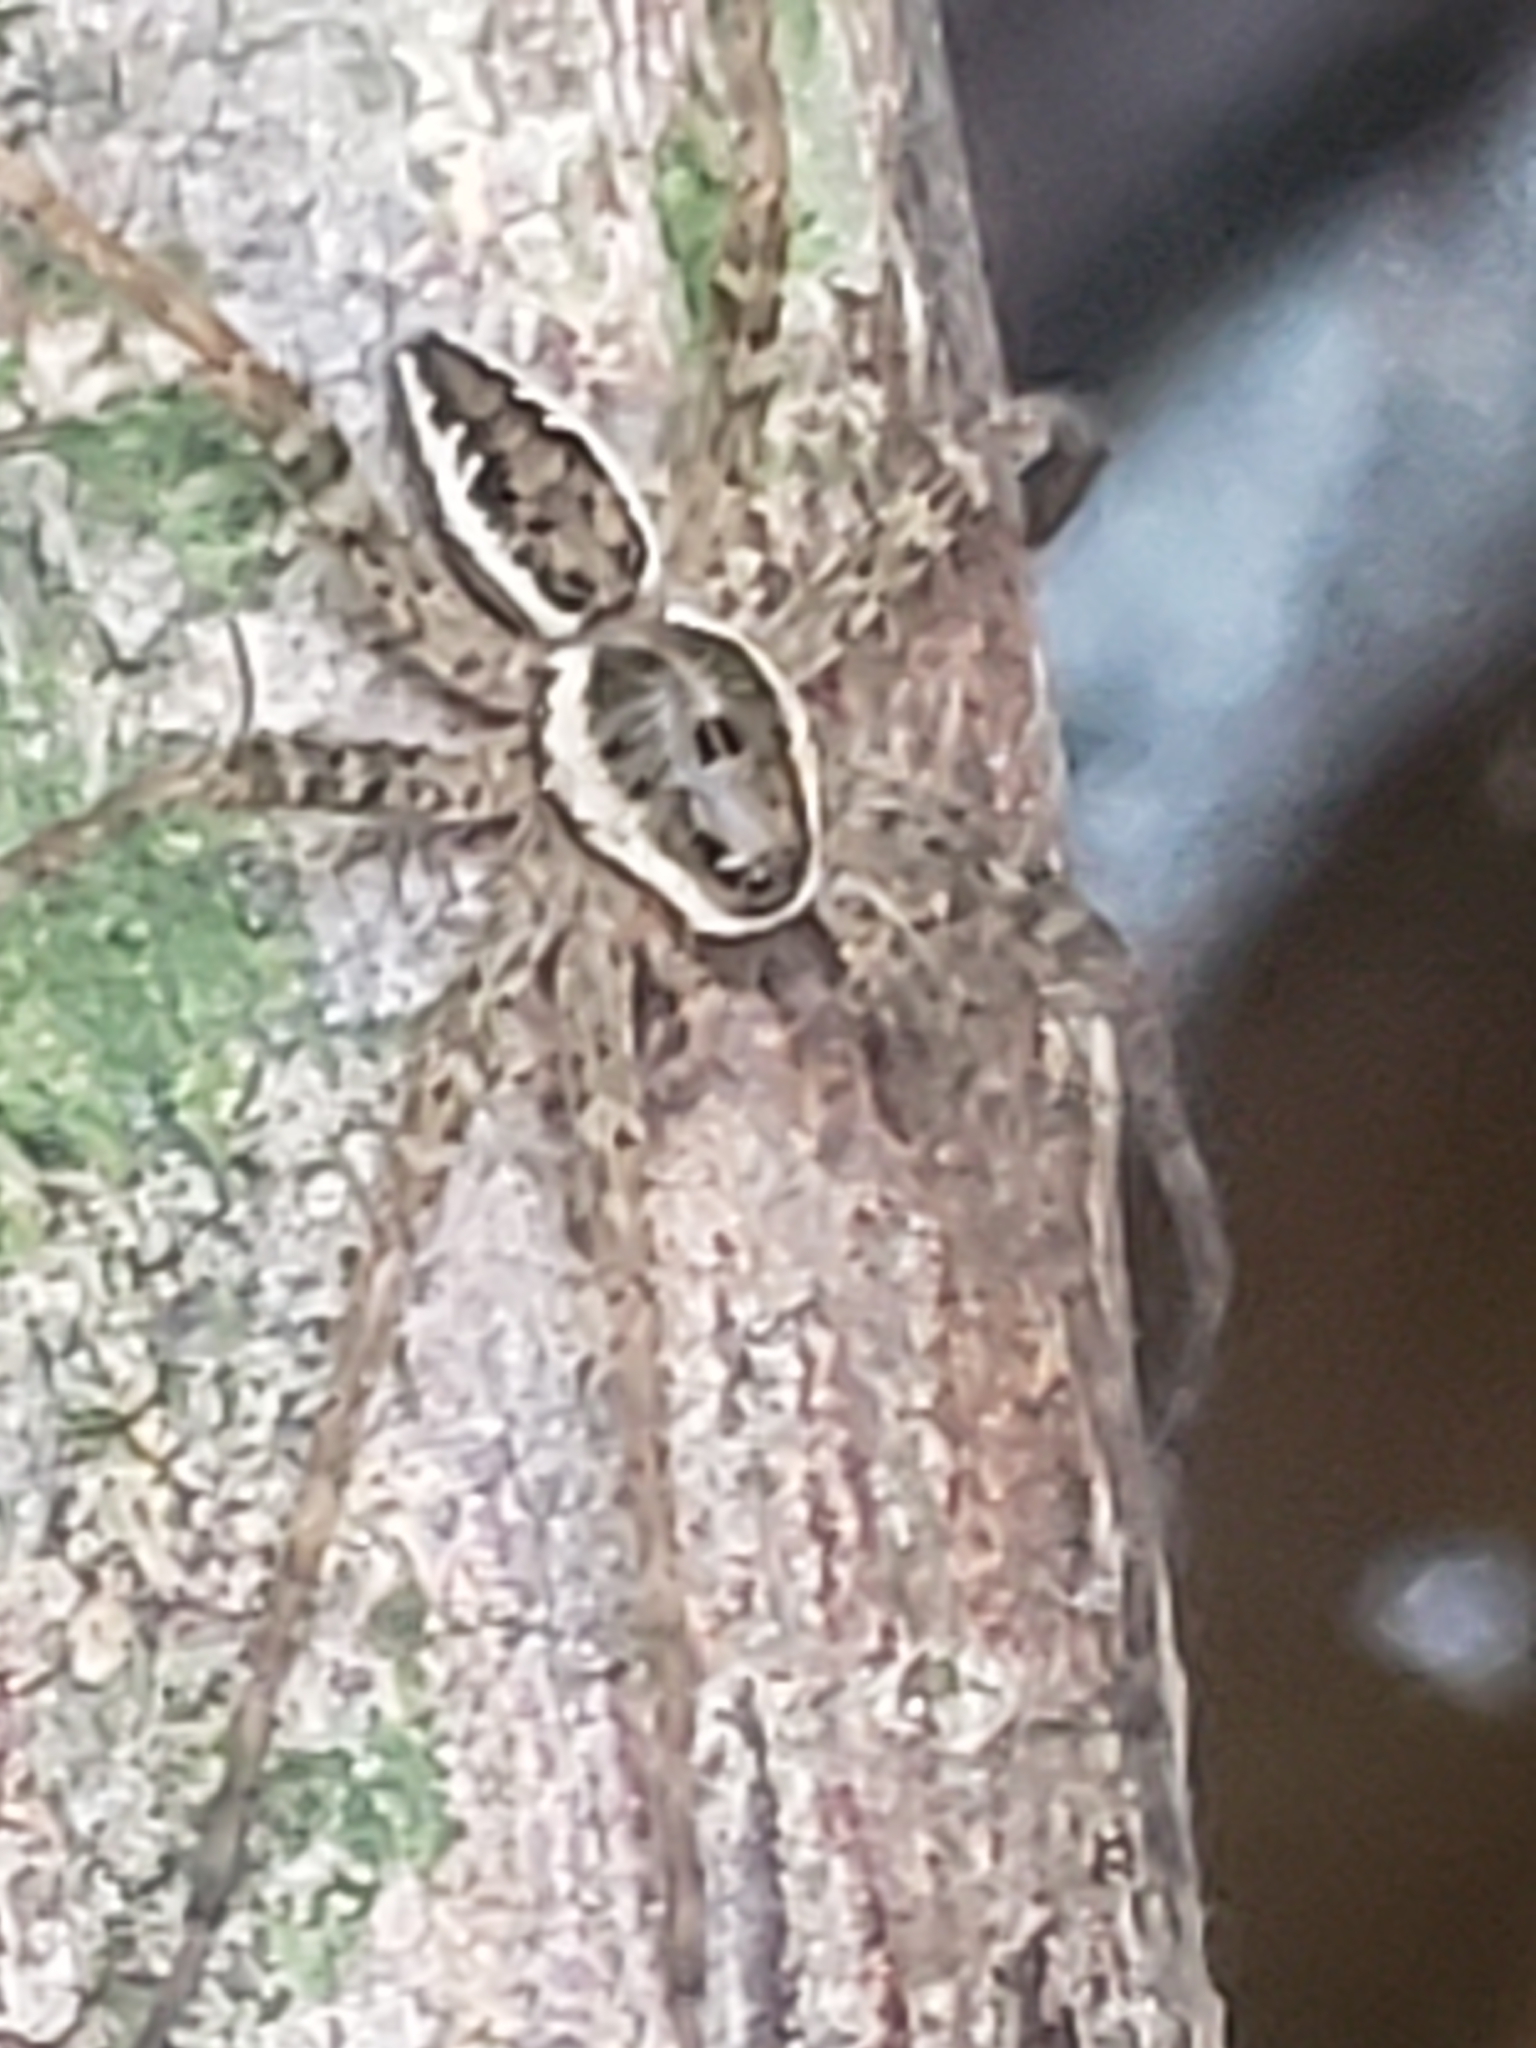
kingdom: Animalia
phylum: Arthropoda
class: Arachnida
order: Araneae
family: Pisauridae
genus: Dolomedes
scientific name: Dolomedes vittatus
